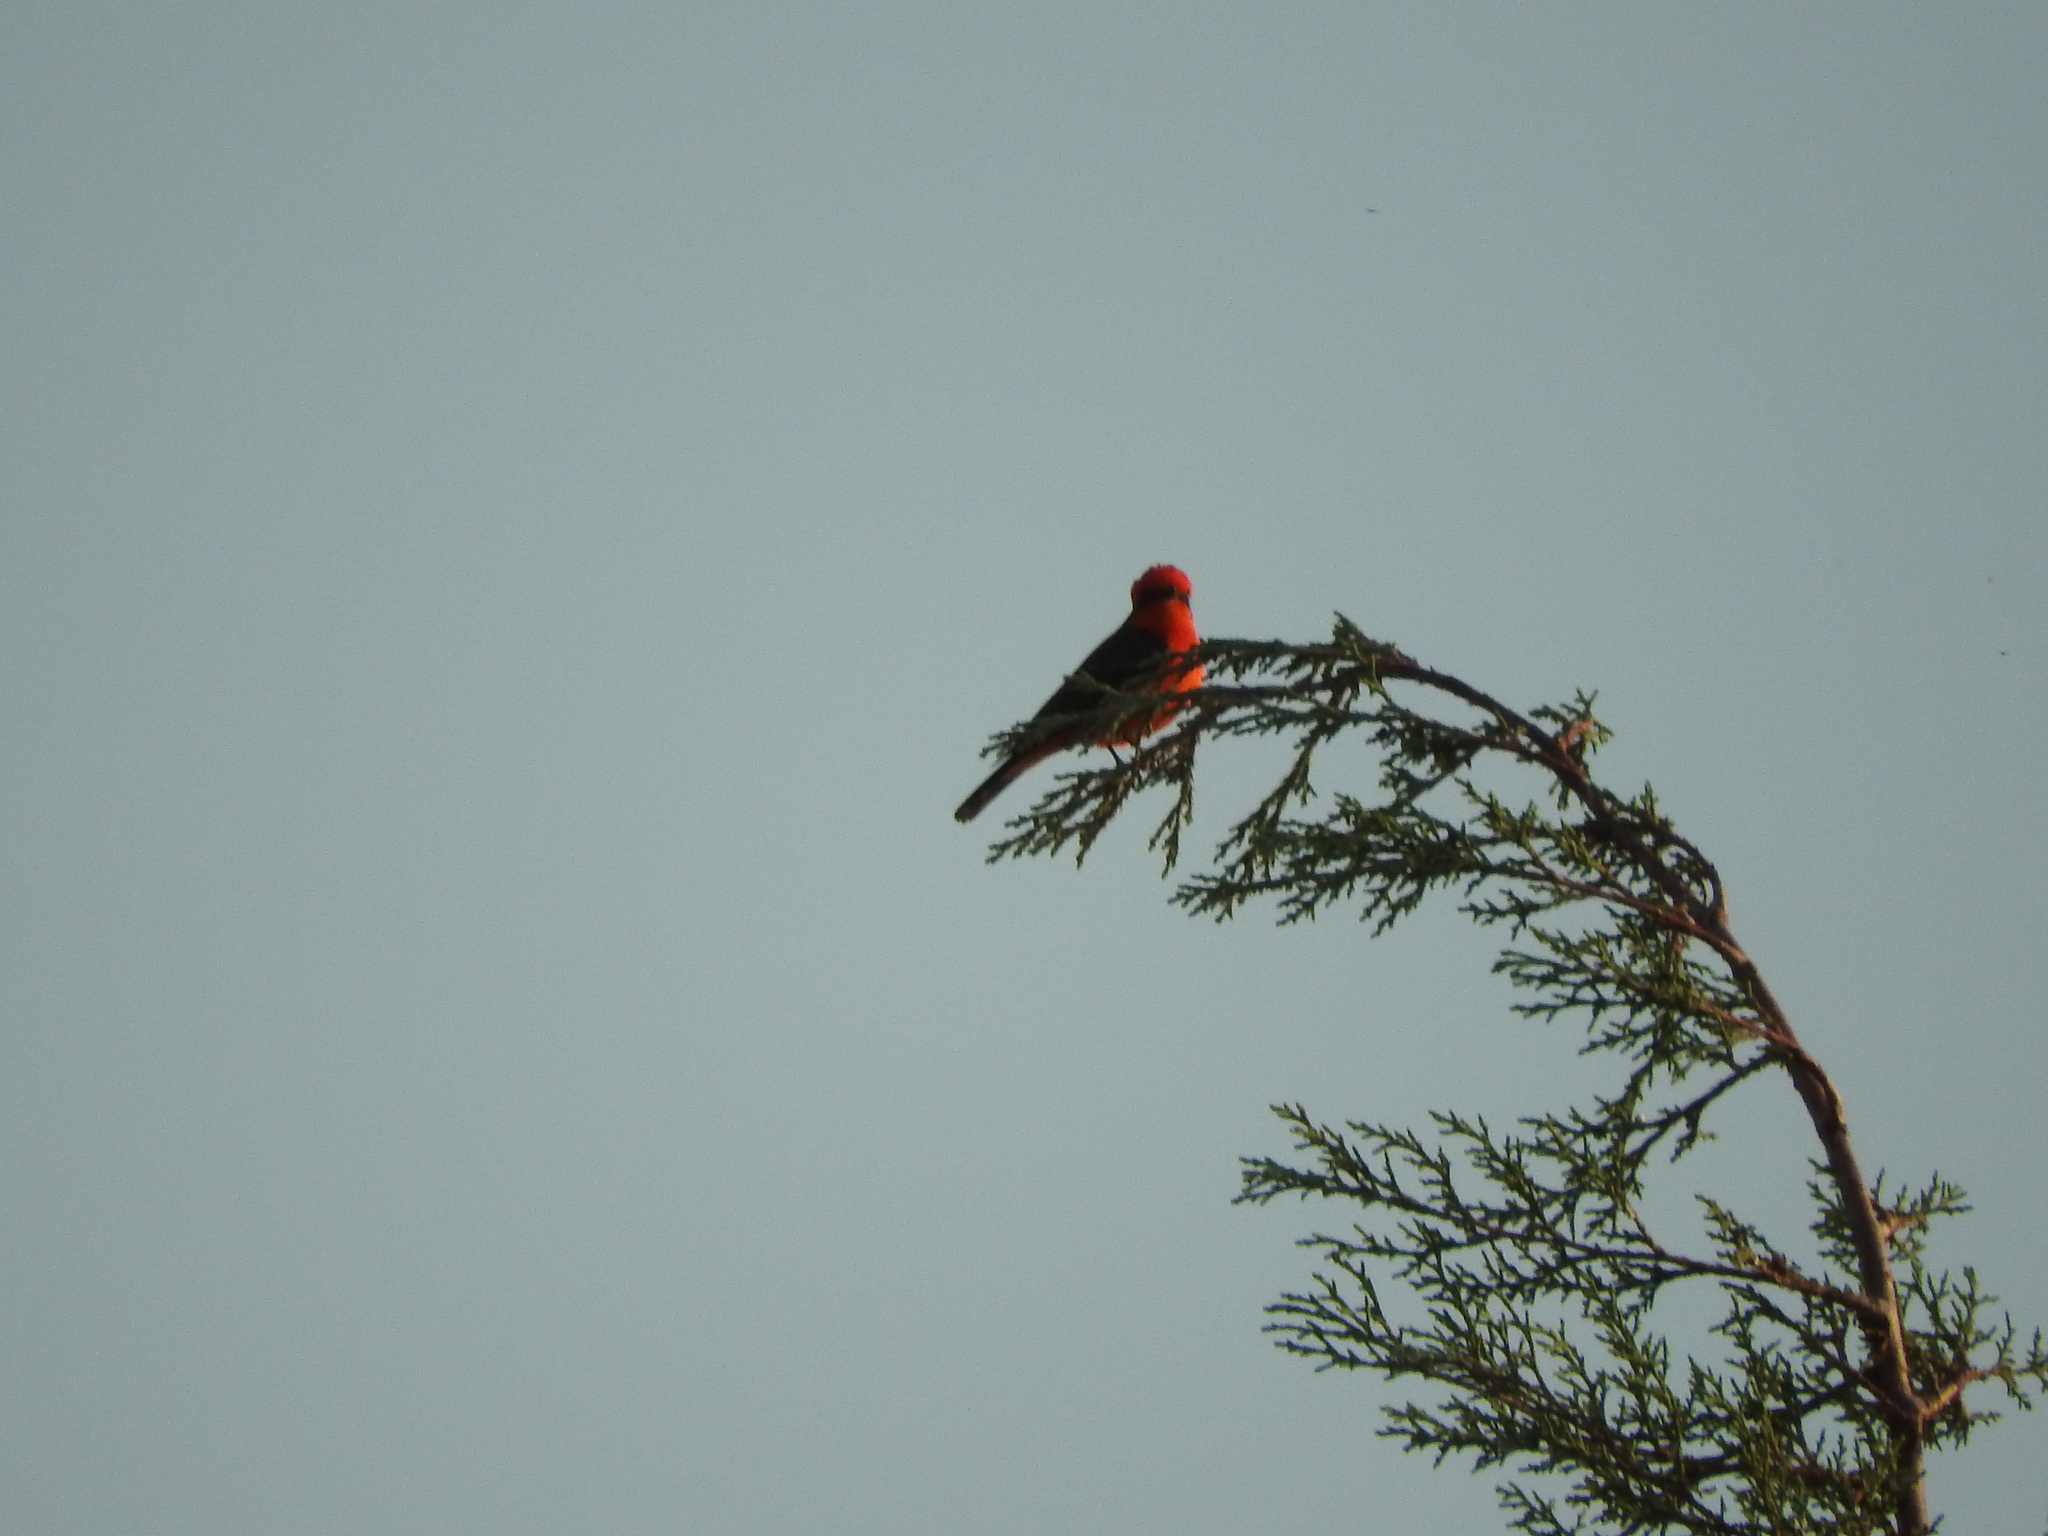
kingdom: Animalia
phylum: Chordata
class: Aves
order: Passeriformes
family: Tyrannidae
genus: Pyrocephalus
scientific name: Pyrocephalus rubinus
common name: Vermilion flycatcher
